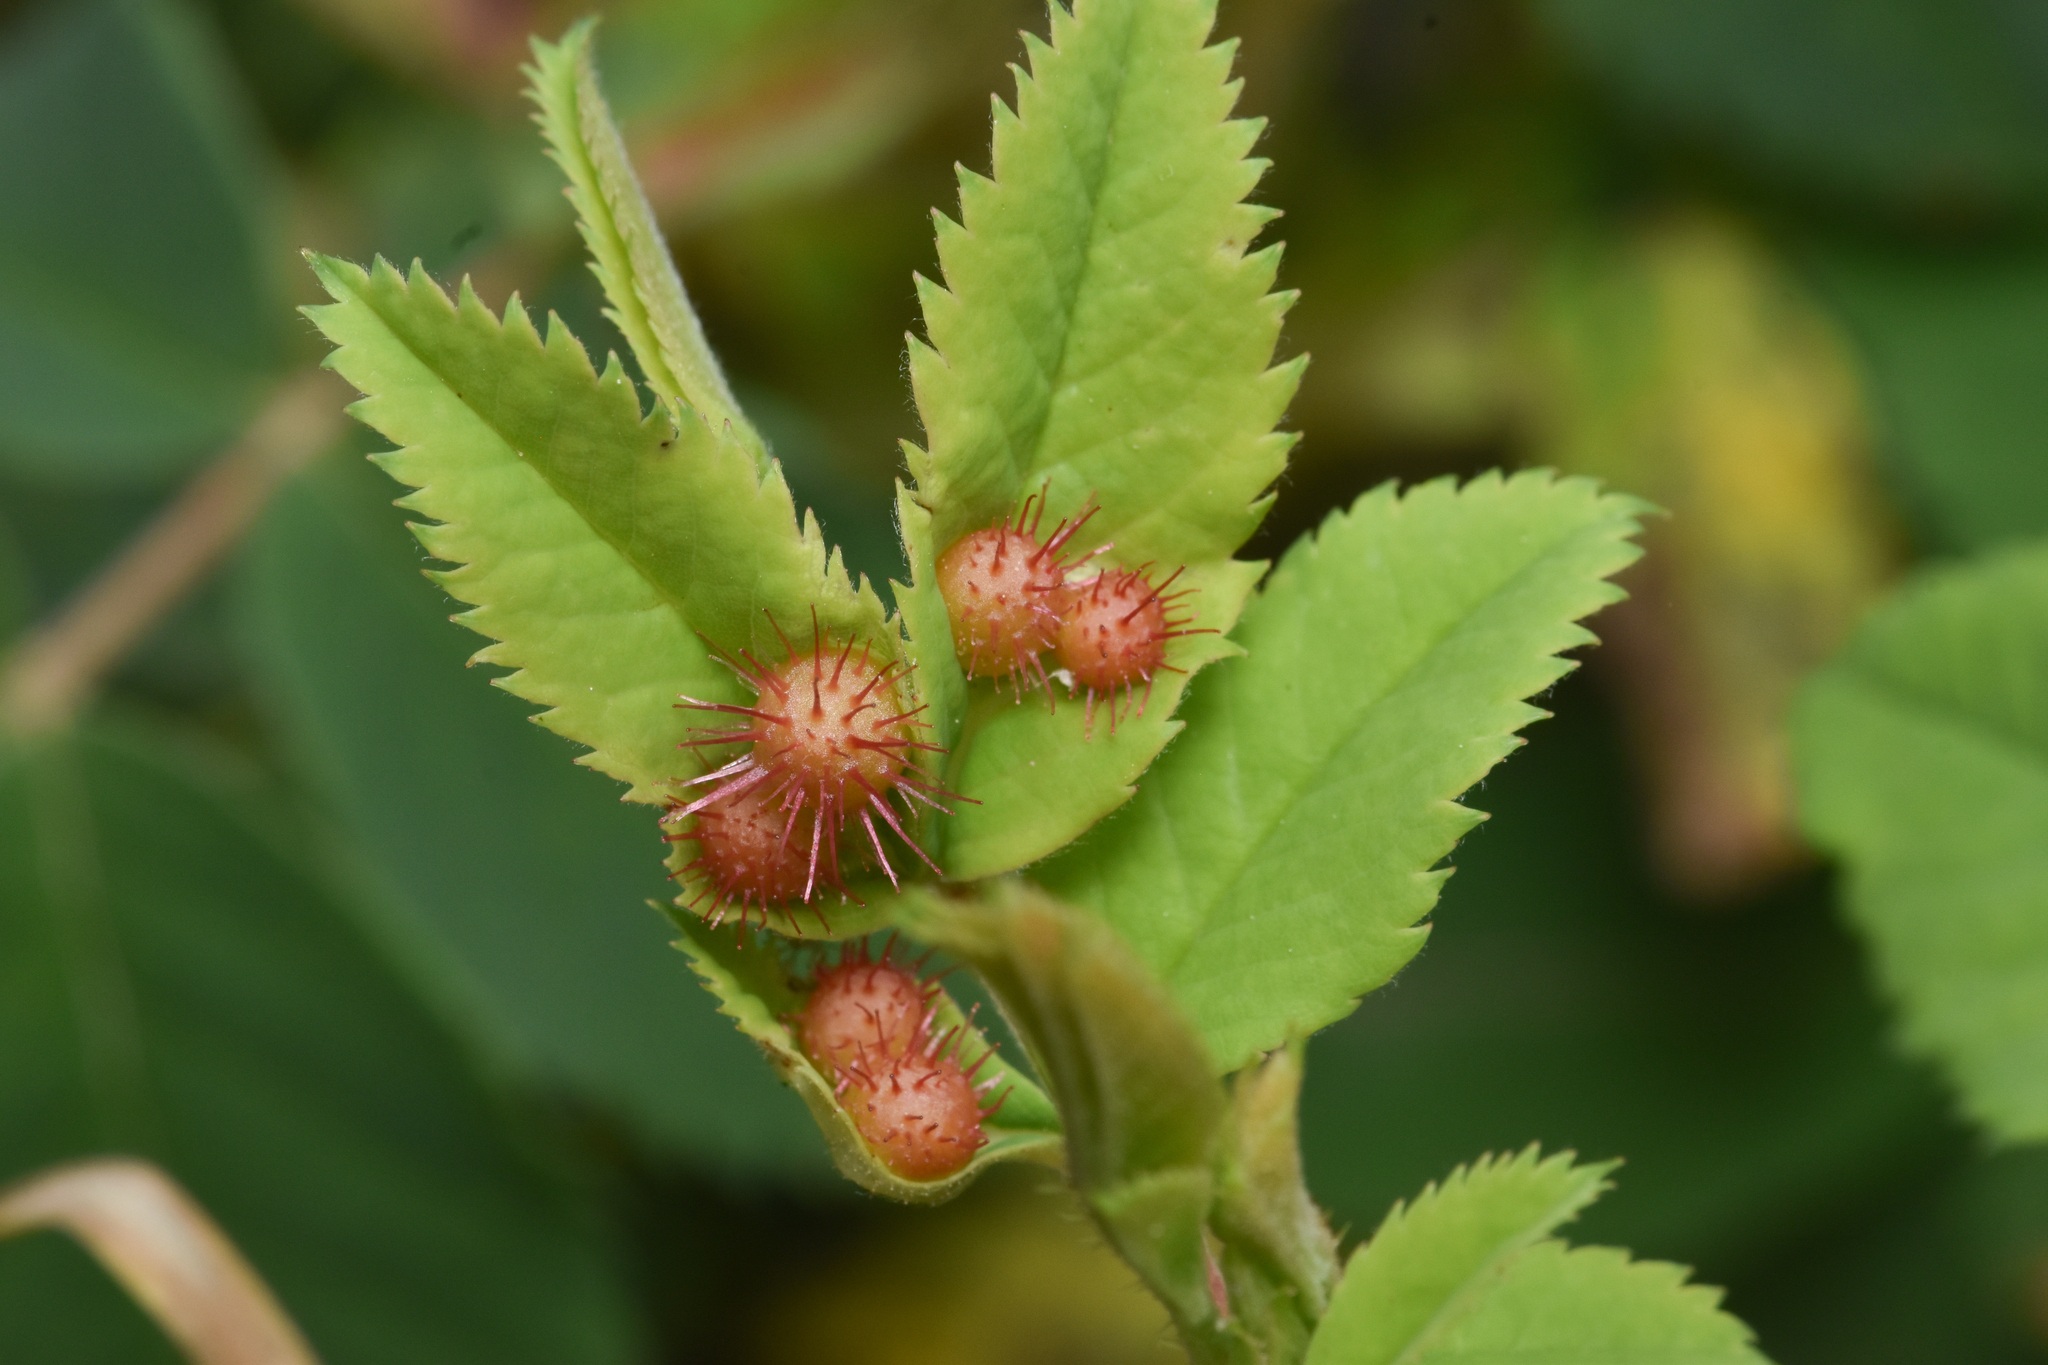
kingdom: Animalia
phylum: Arthropoda
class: Insecta
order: Hymenoptera
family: Cynipidae
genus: Diplolepis
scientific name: Diplolepis polita
